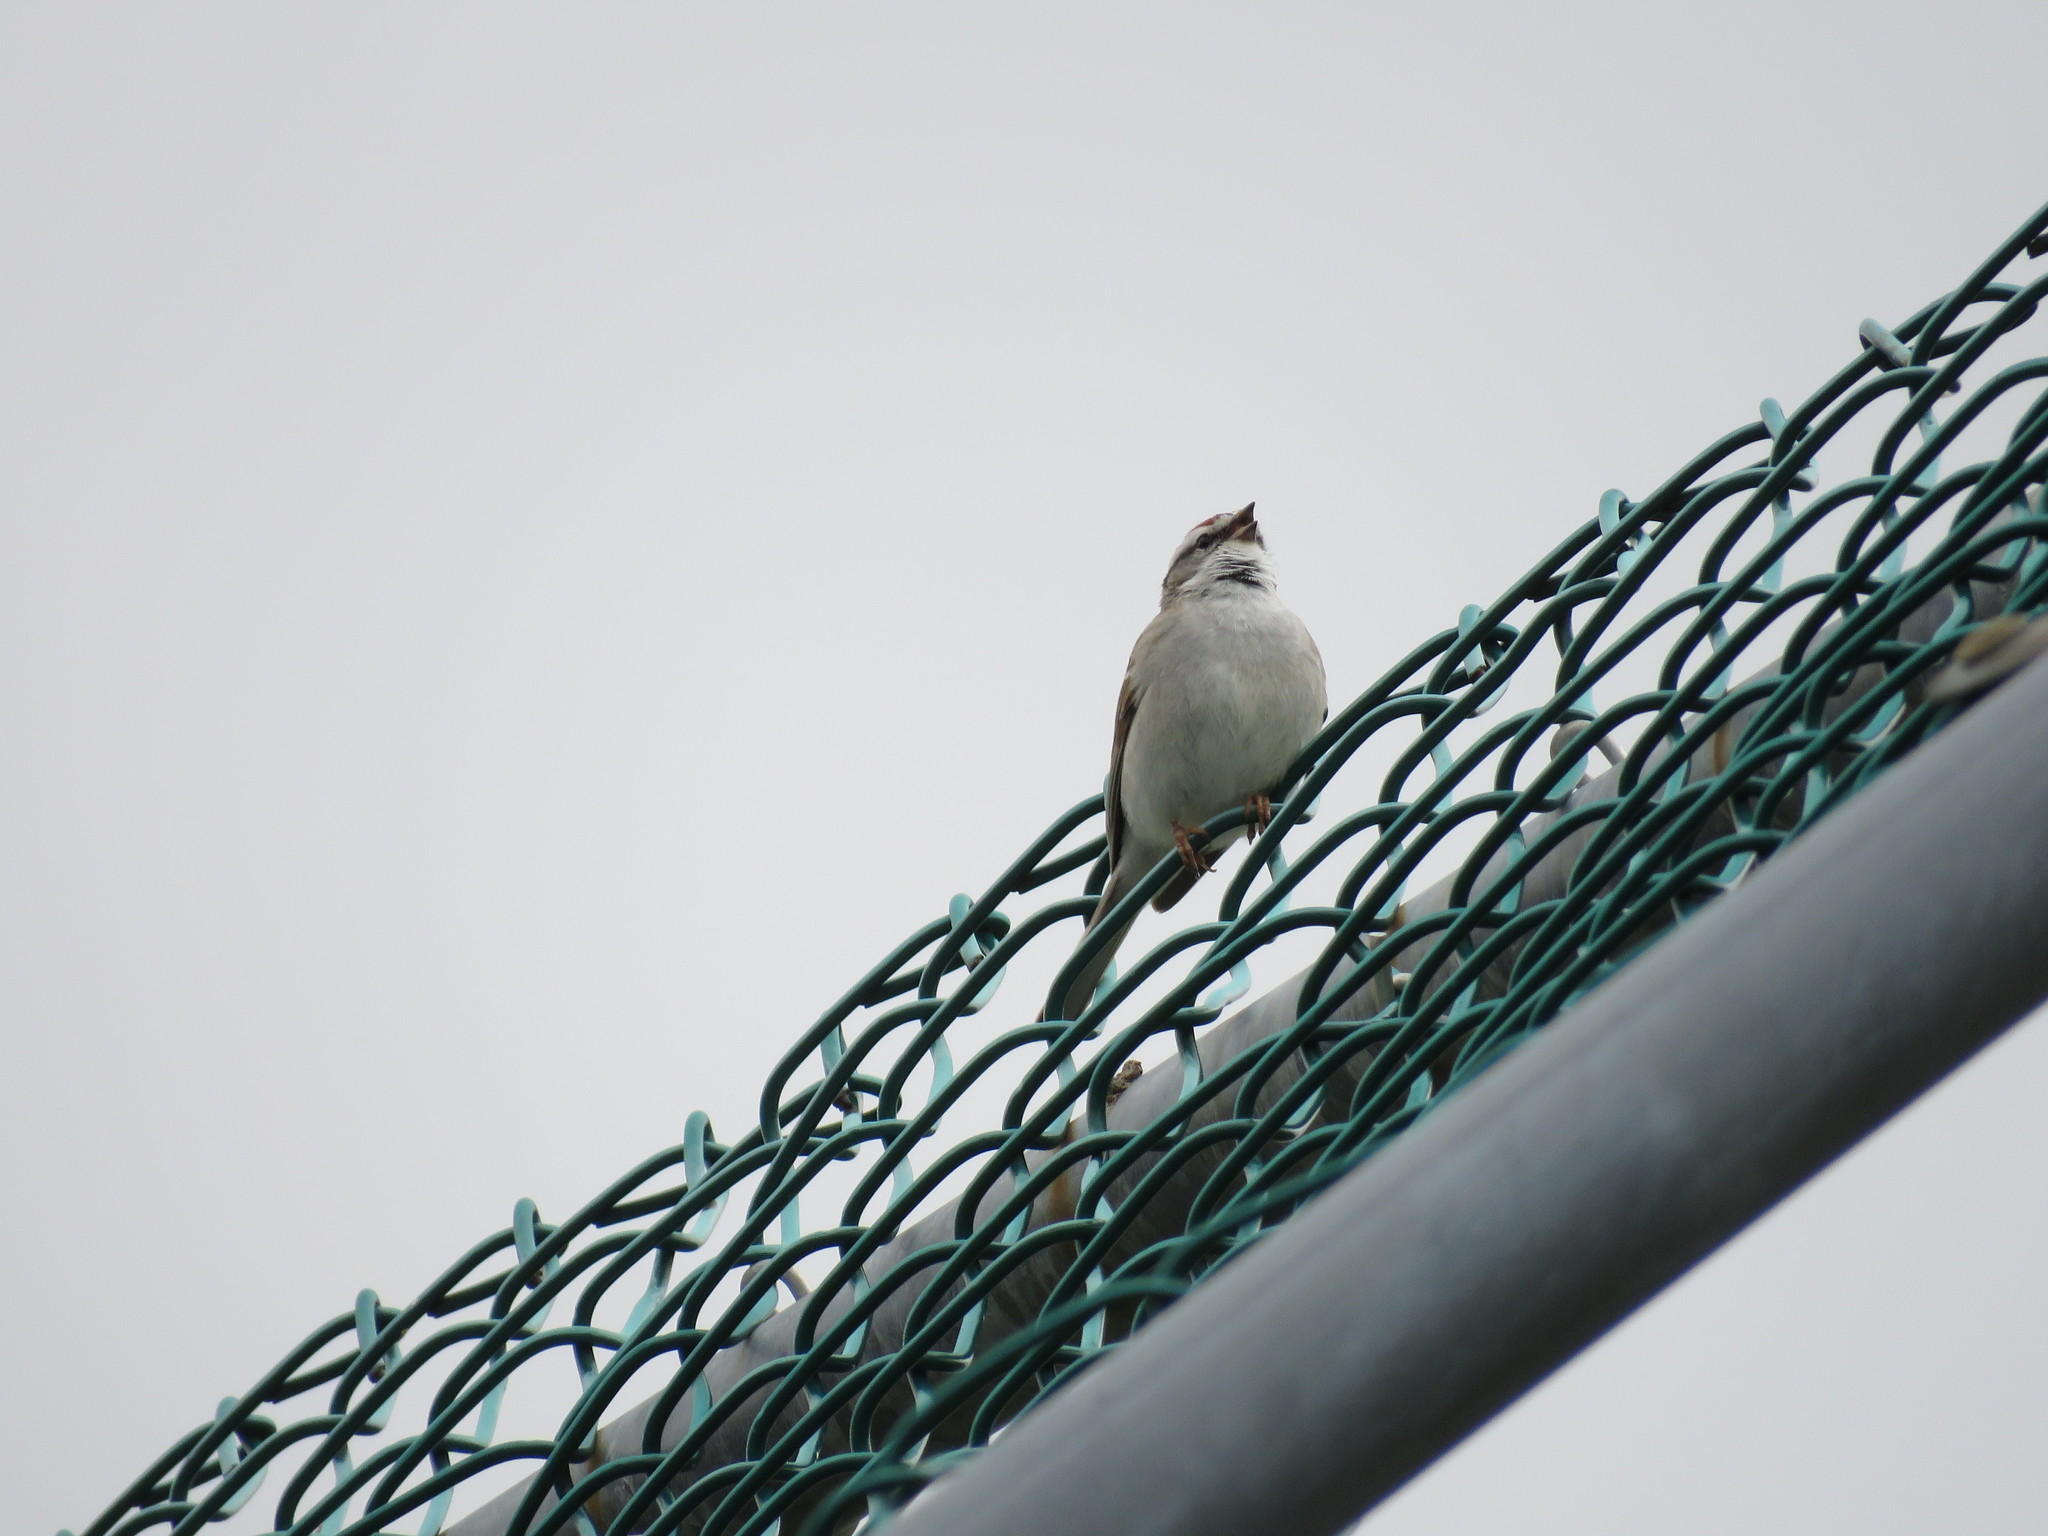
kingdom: Animalia
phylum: Chordata
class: Aves
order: Passeriformes
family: Passerellidae
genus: Spizella
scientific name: Spizella passerina
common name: Chipping sparrow
